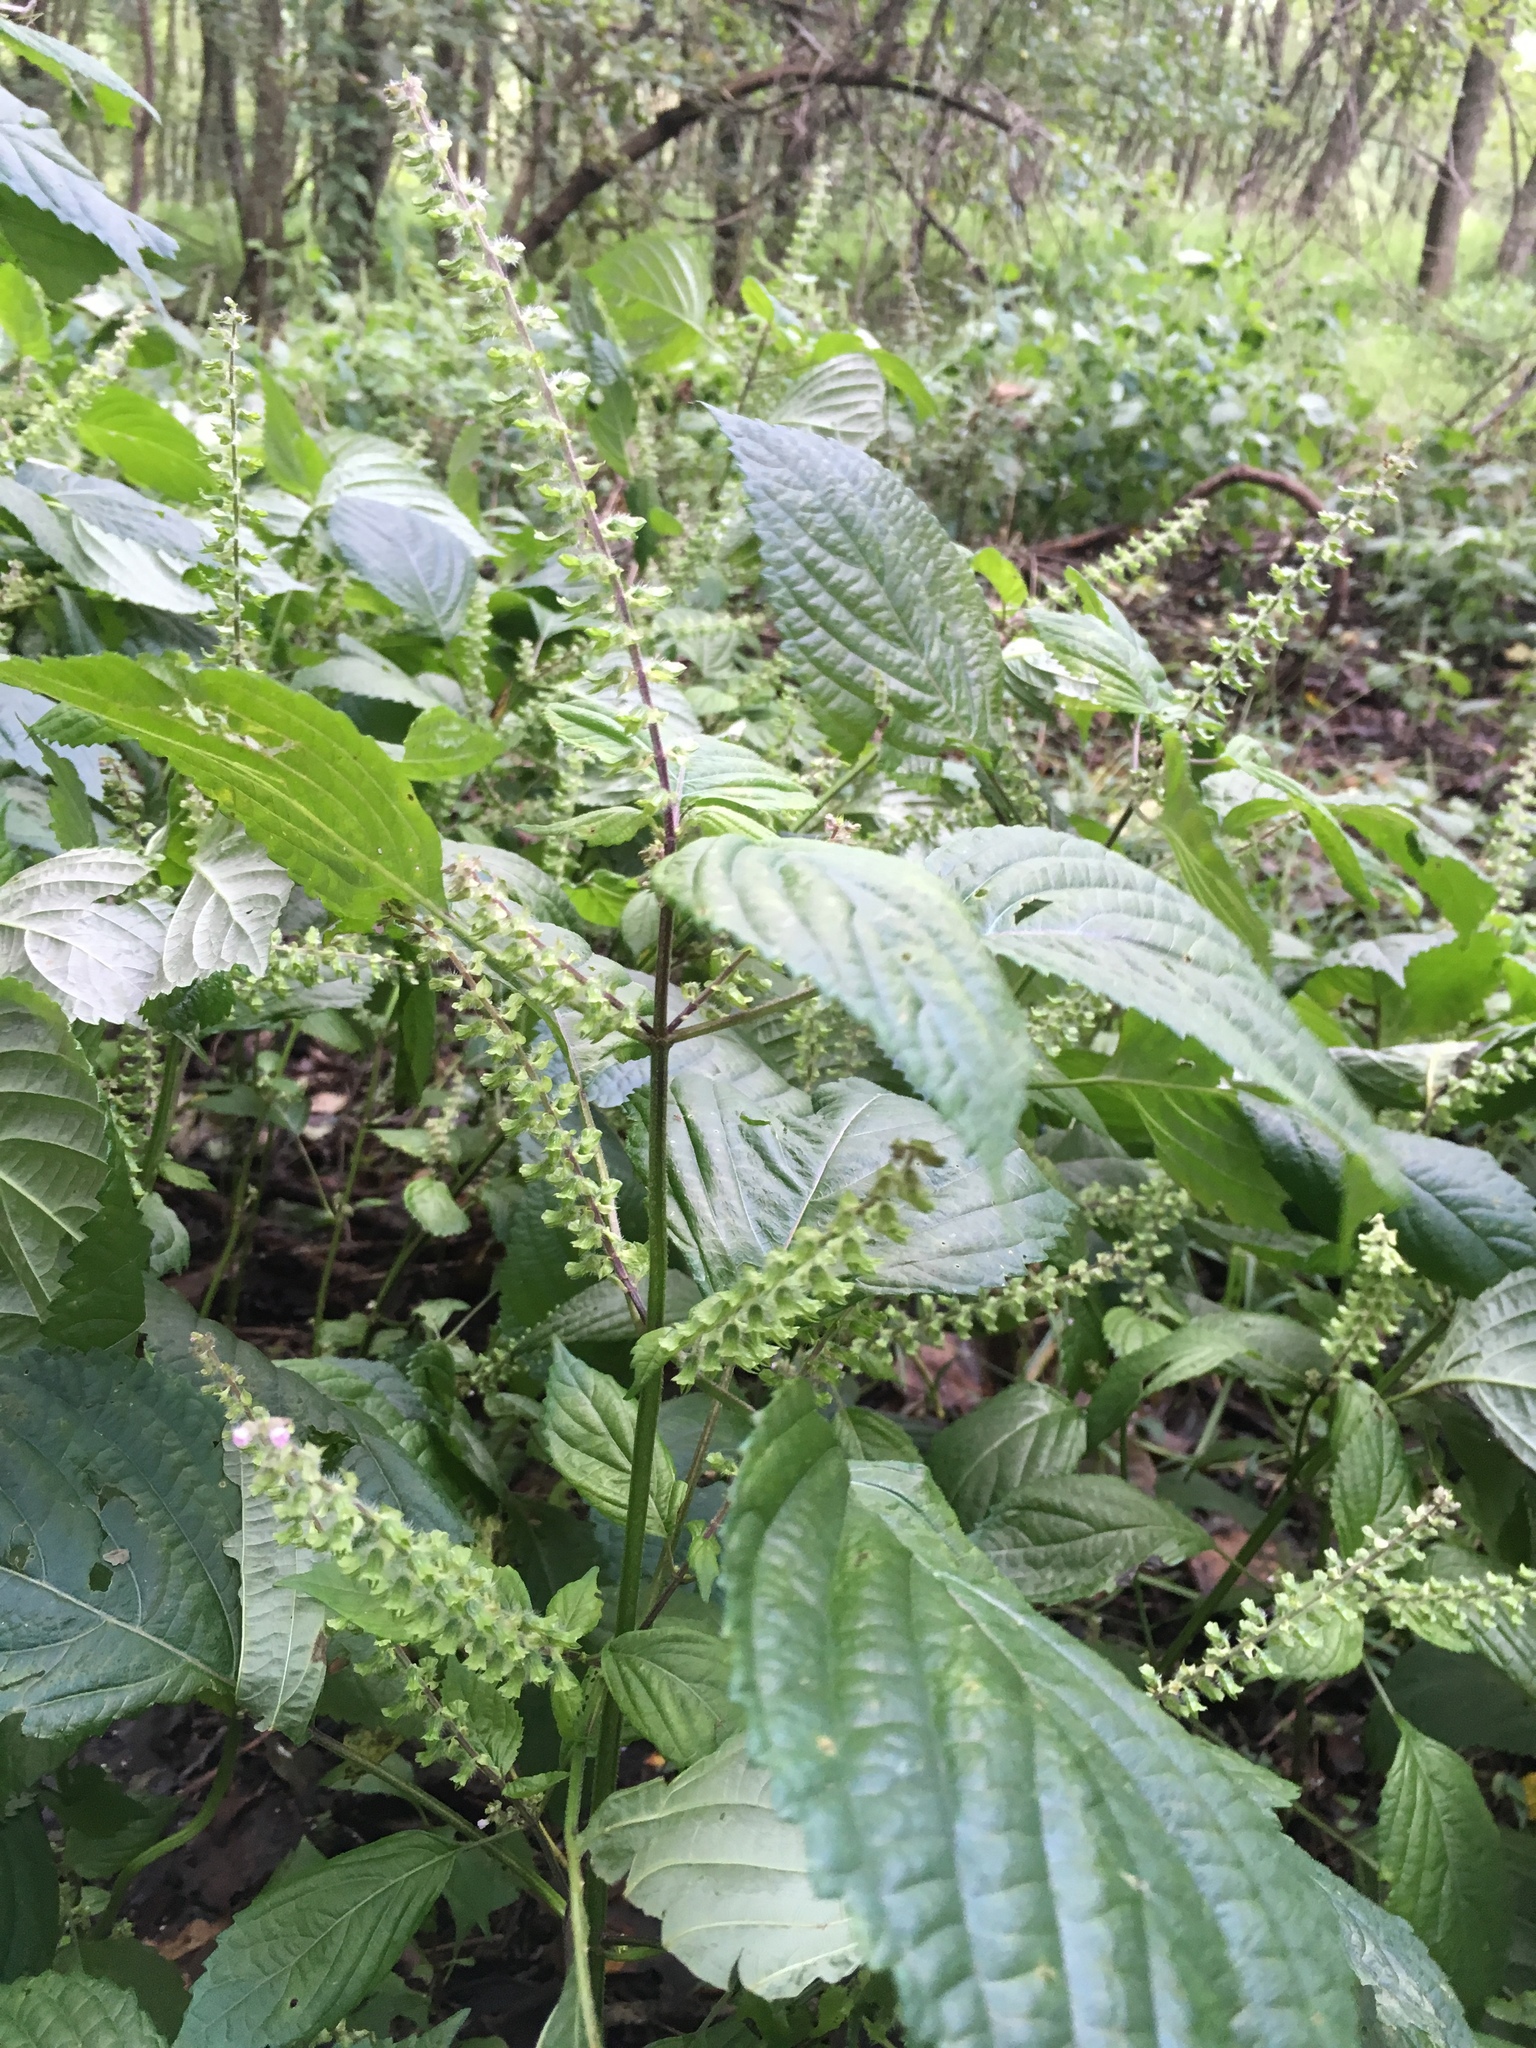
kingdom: Plantae
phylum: Tracheophyta
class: Magnoliopsida
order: Lamiales
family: Lamiaceae
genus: Perilla
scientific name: Perilla frutescens
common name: Perilla
